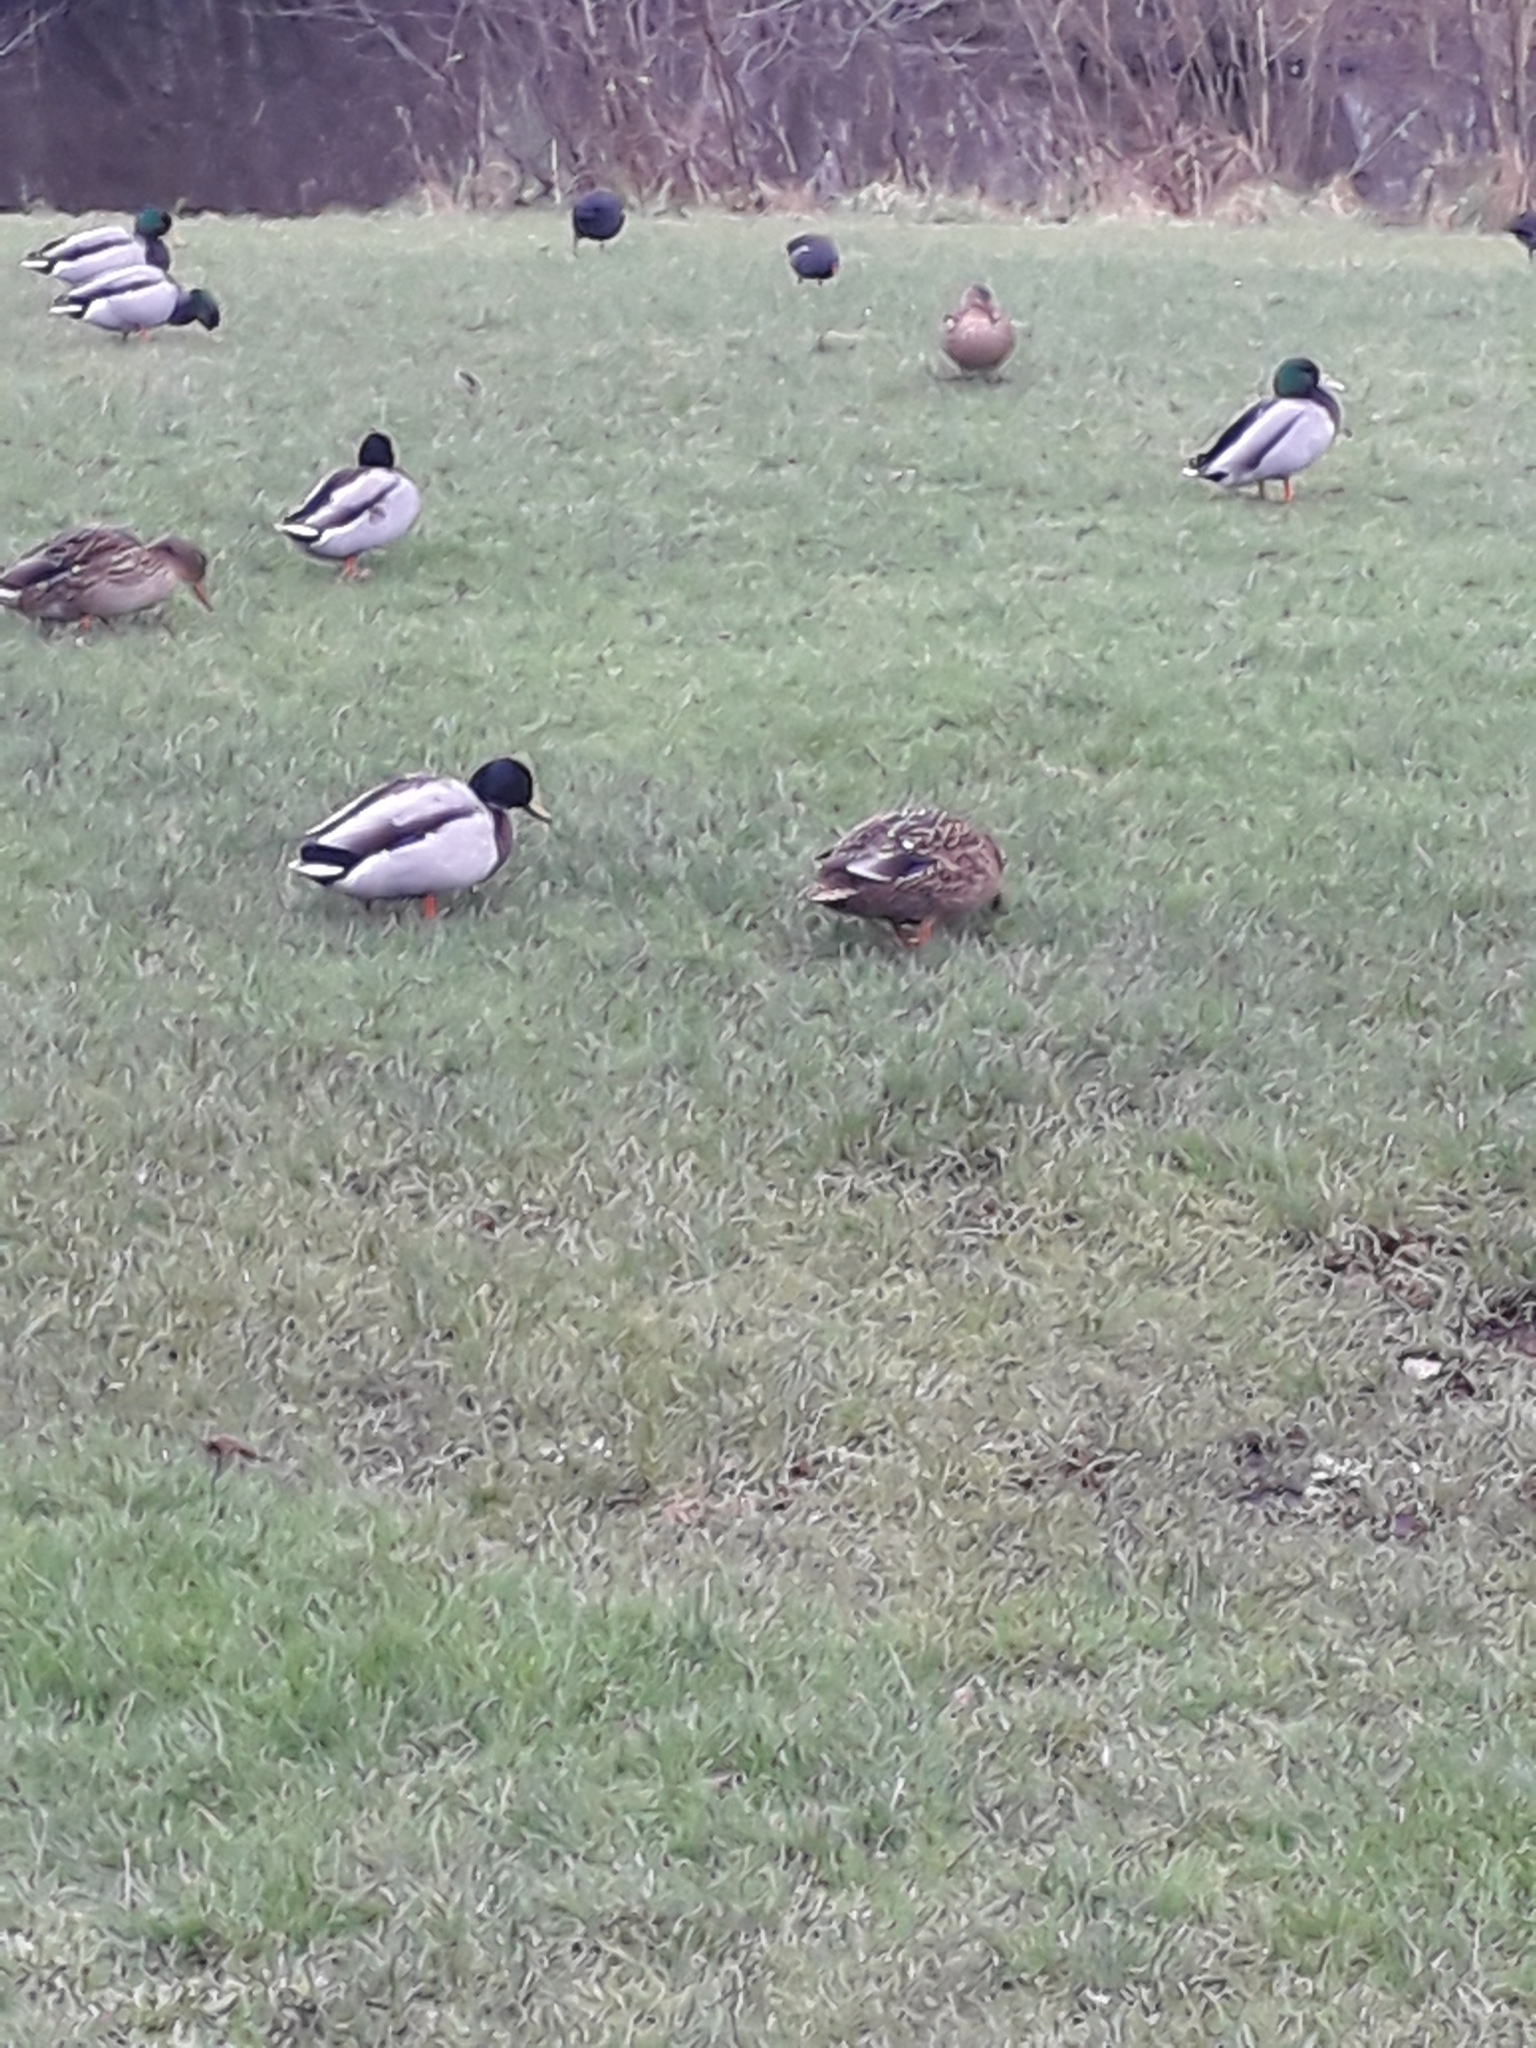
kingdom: Animalia
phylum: Chordata
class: Aves
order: Anseriformes
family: Anatidae
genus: Anas
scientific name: Anas platyrhynchos
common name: Mallard
